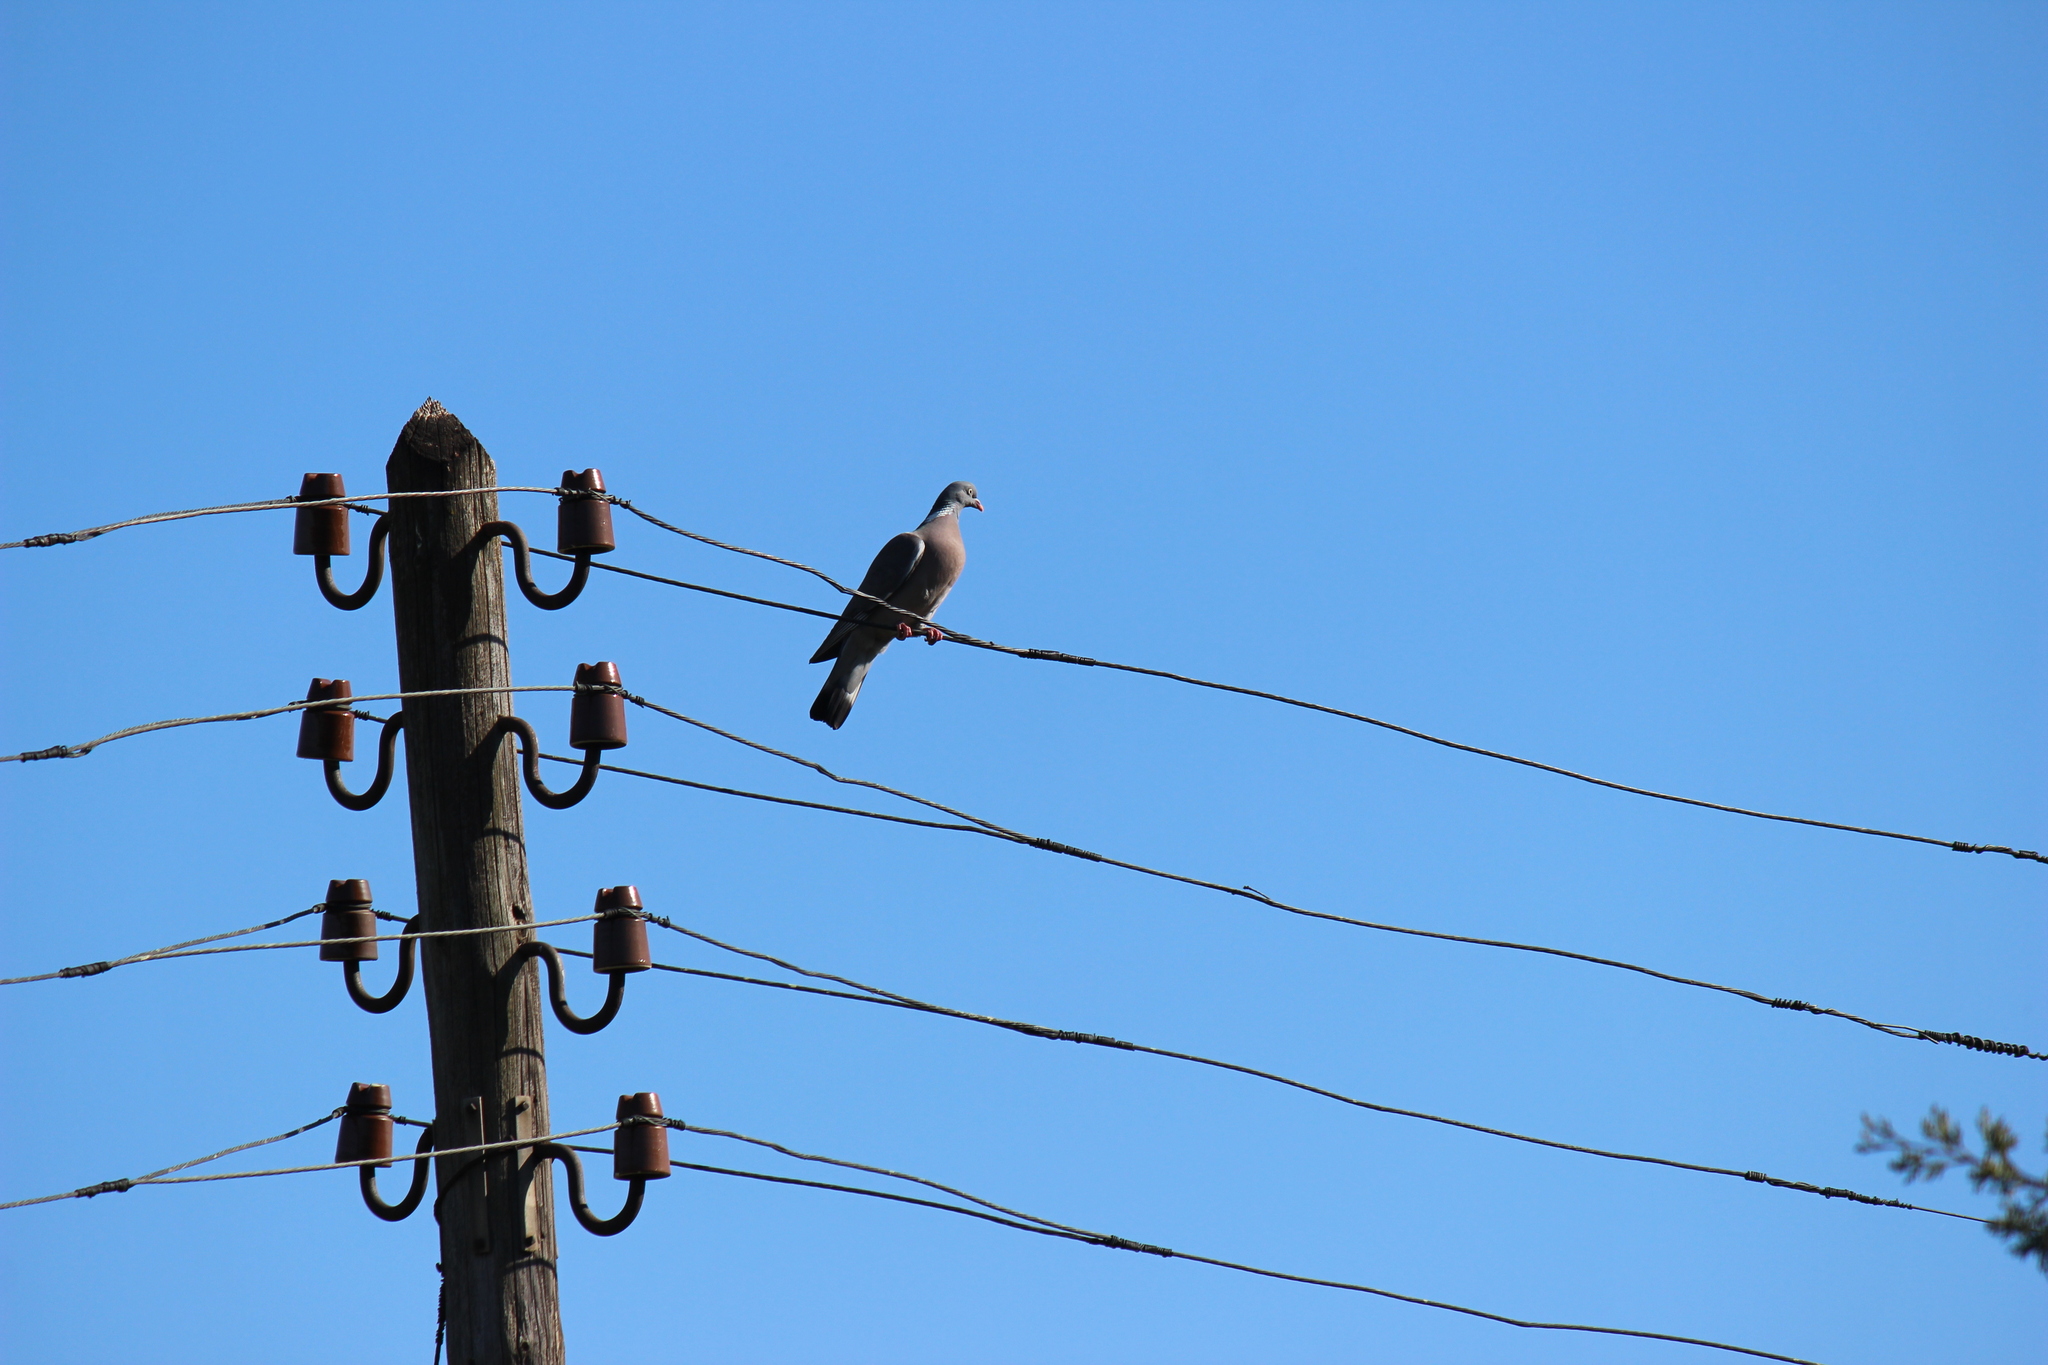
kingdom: Animalia
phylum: Chordata
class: Aves
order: Columbiformes
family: Columbidae
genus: Columba
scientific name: Columba palumbus
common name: Common wood pigeon
